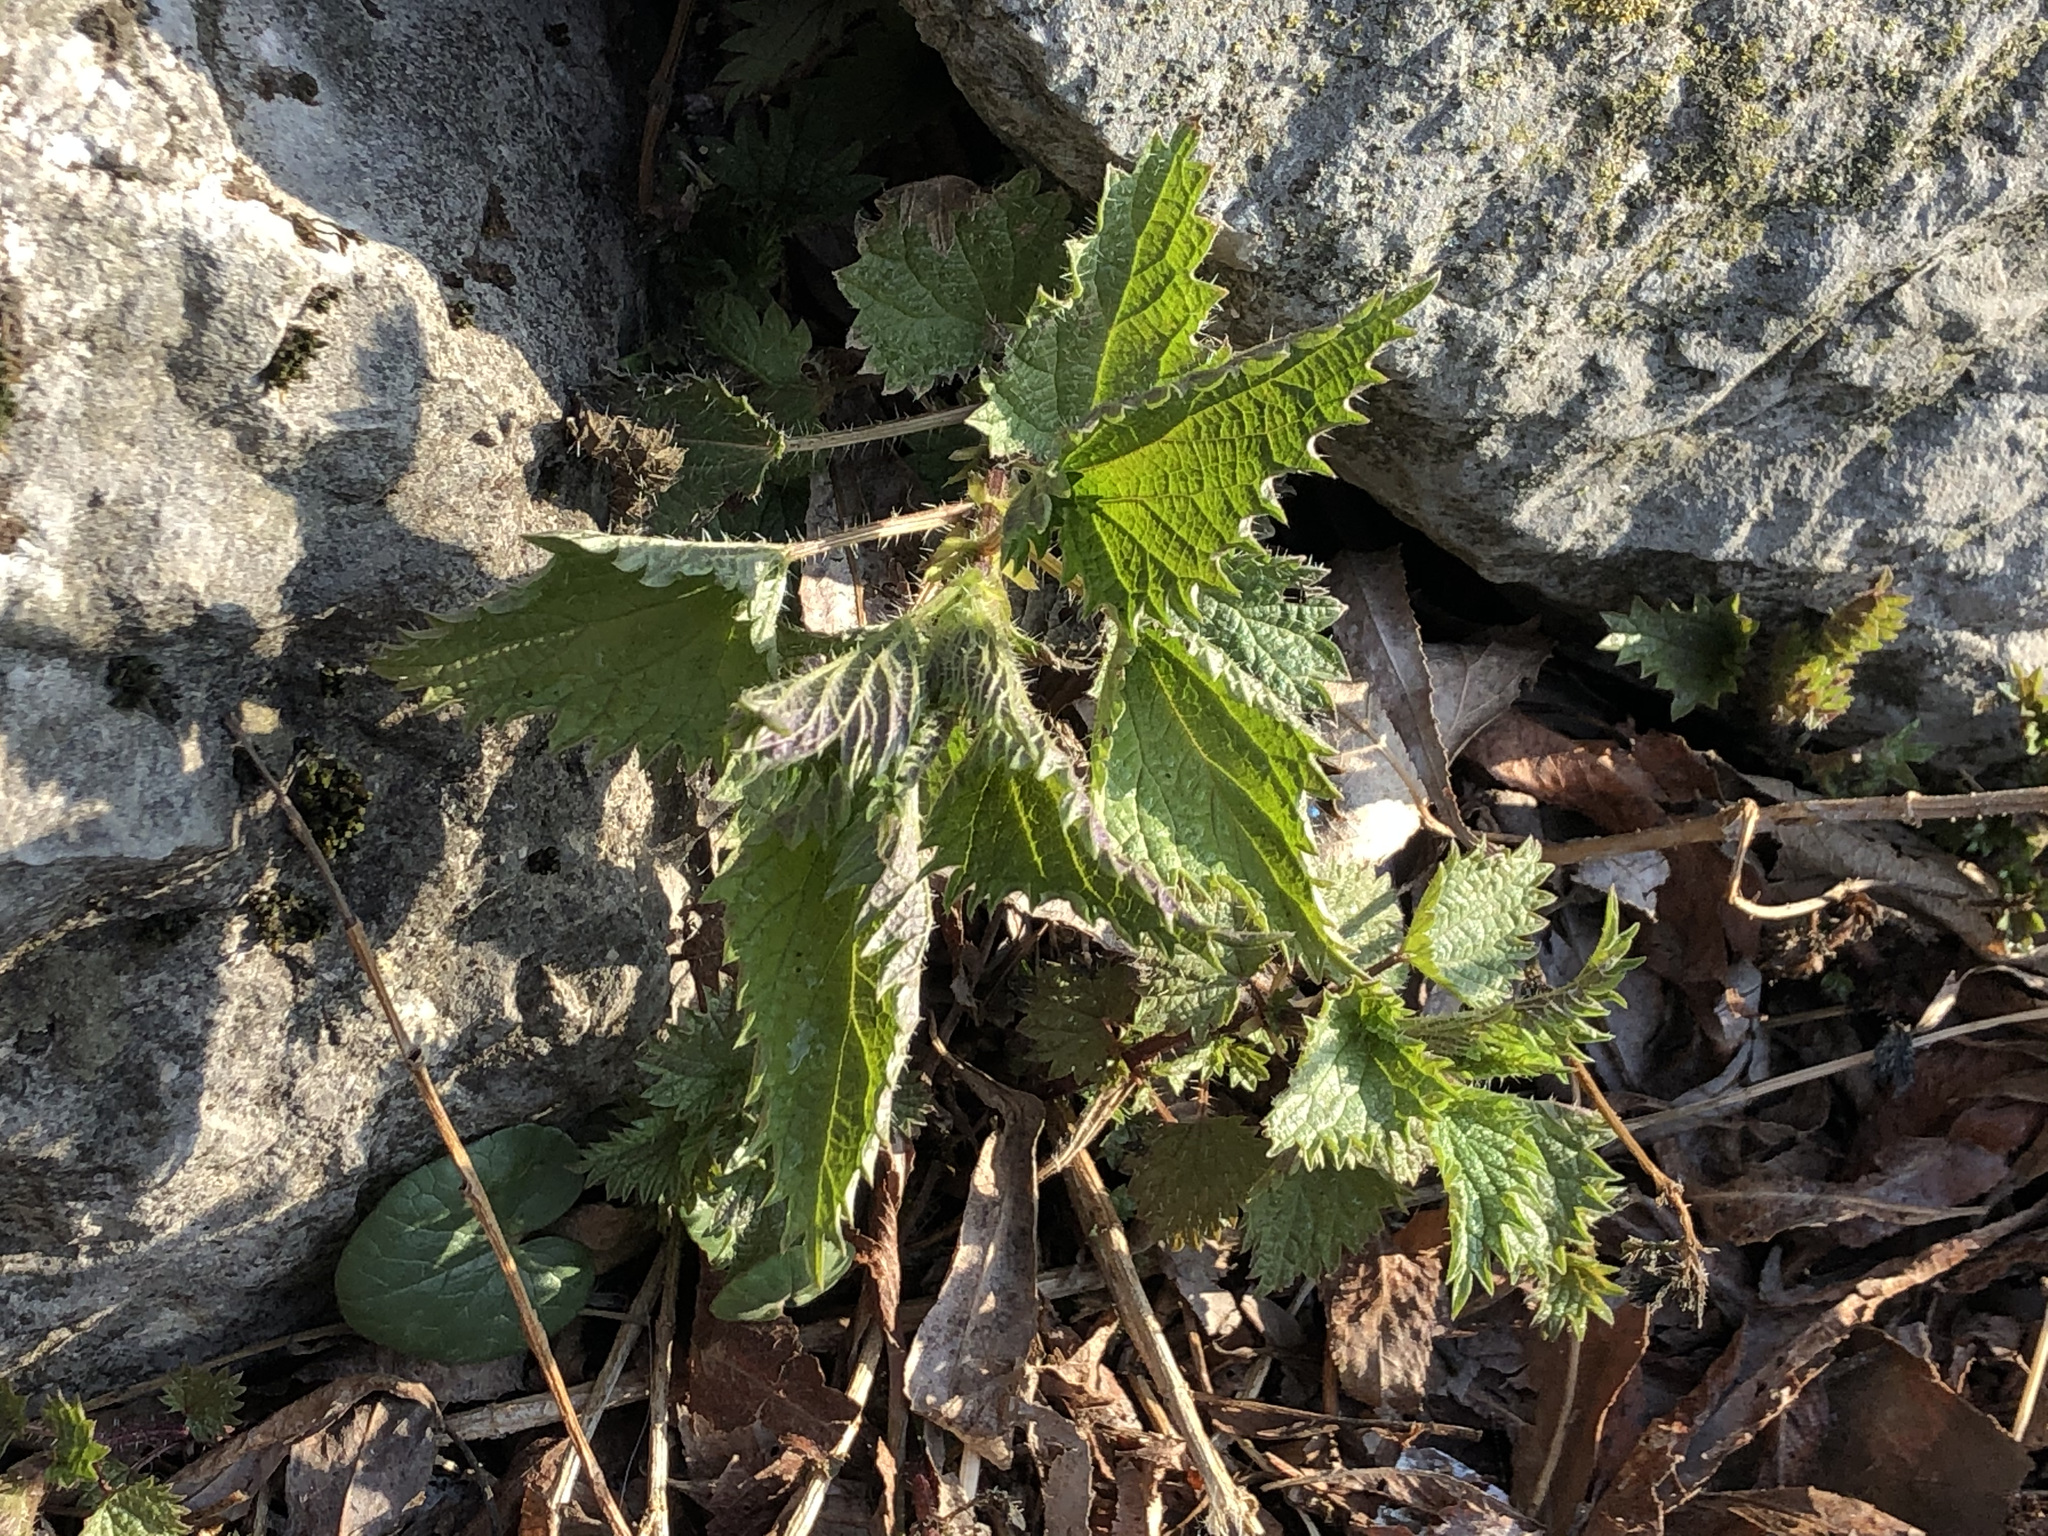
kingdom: Plantae
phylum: Tracheophyta
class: Magnoliopsida
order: Rosales
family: Urticaceae
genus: Urtica
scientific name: Urtica dioica
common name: Common nettle
